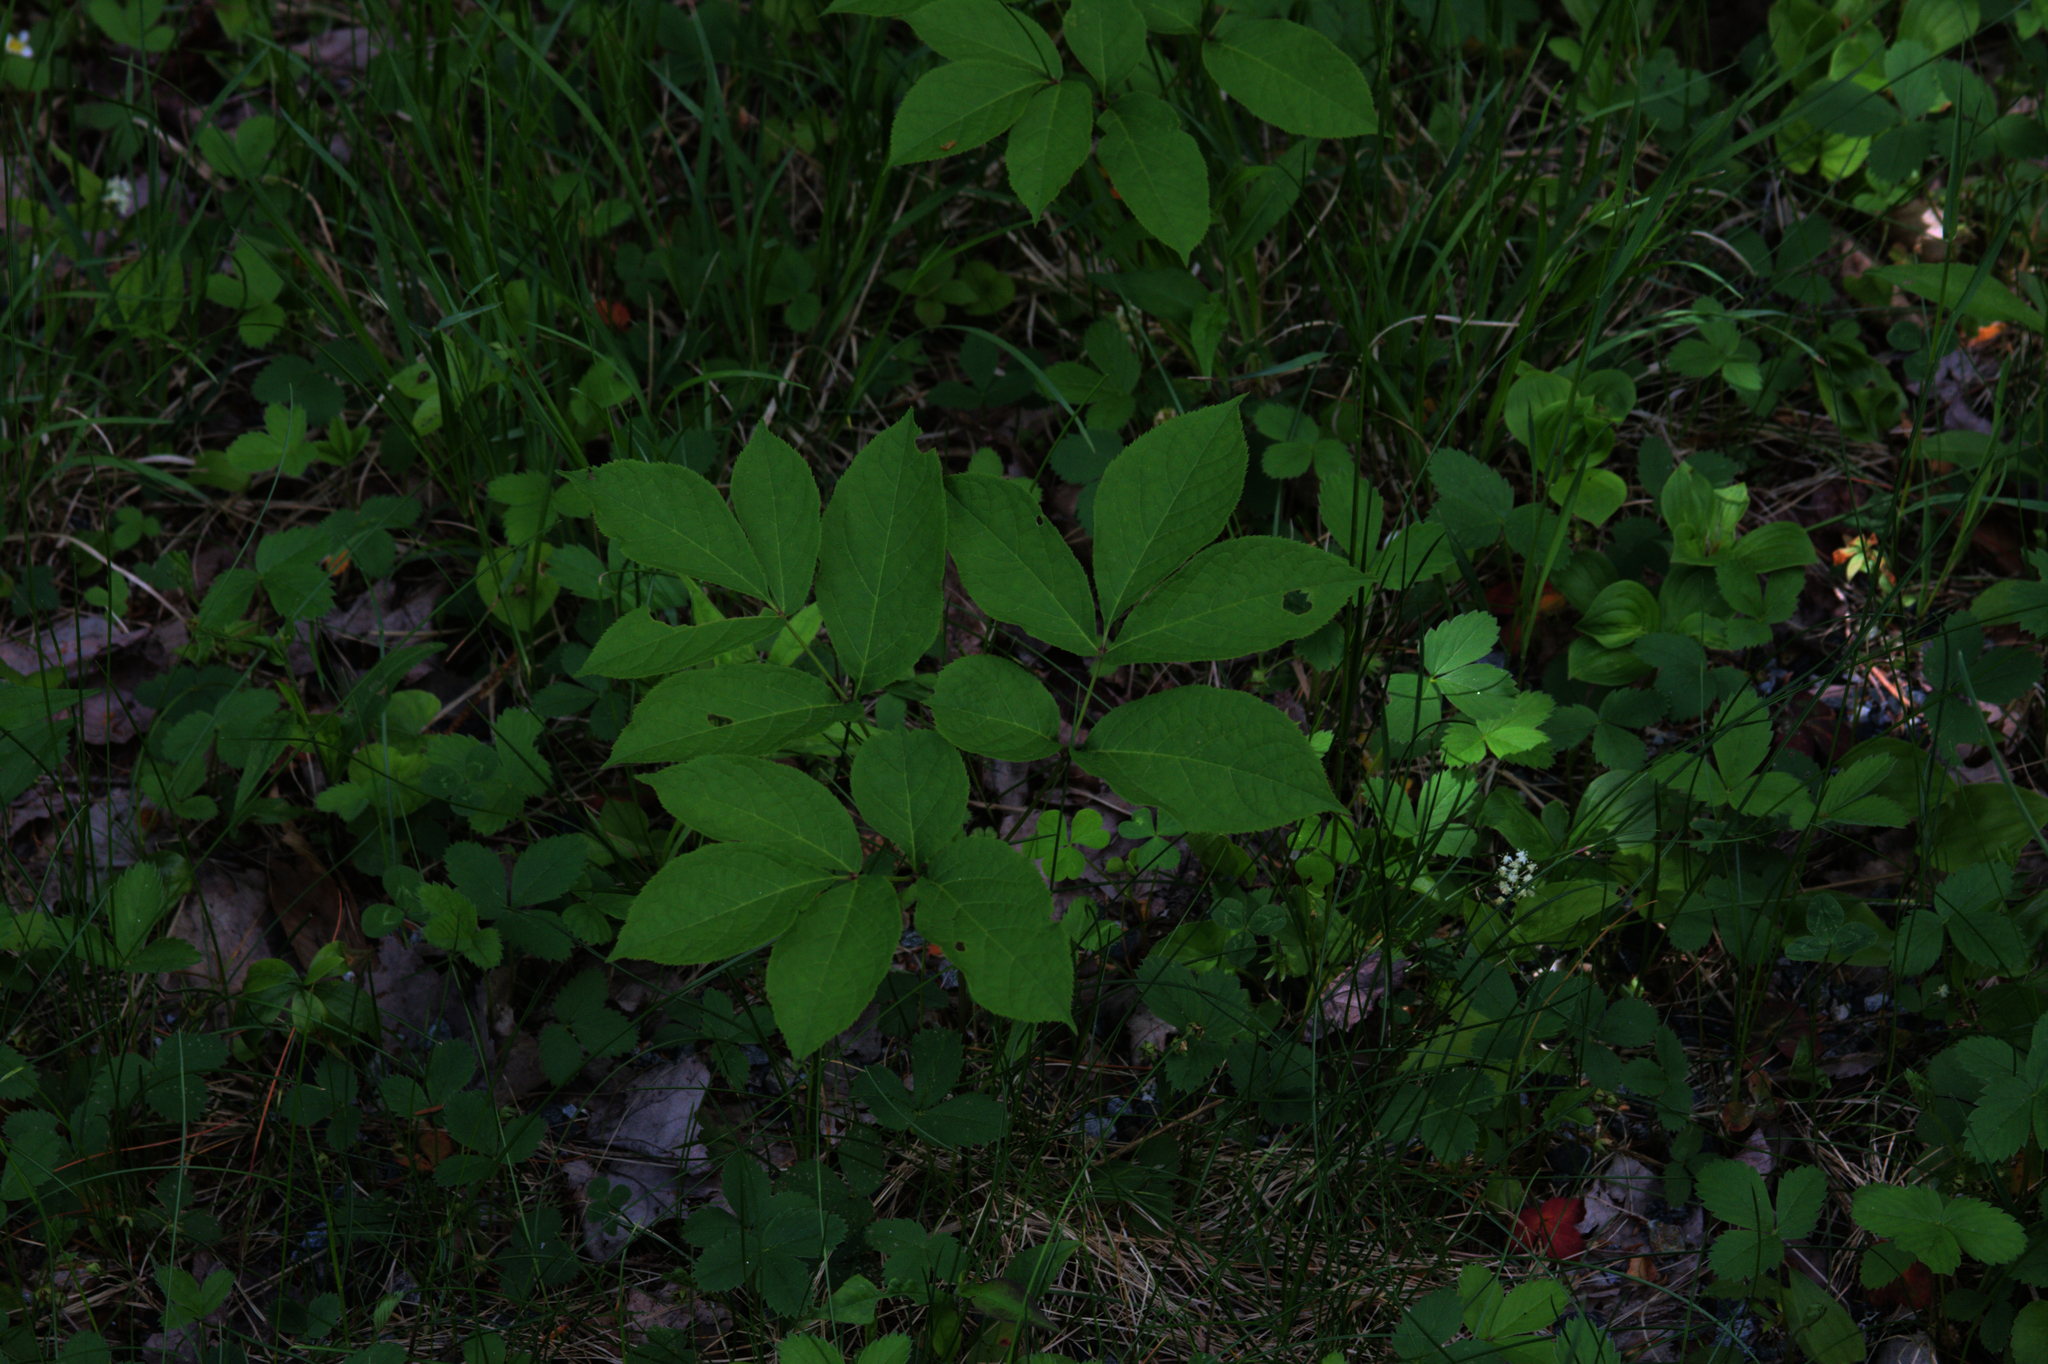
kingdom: Plantae
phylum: Tracheophyta
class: Magnoliopsida
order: Apiales
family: Araliaceae
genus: Aralia
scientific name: Aralia nudicaulis
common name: Wild sarsaparilla
